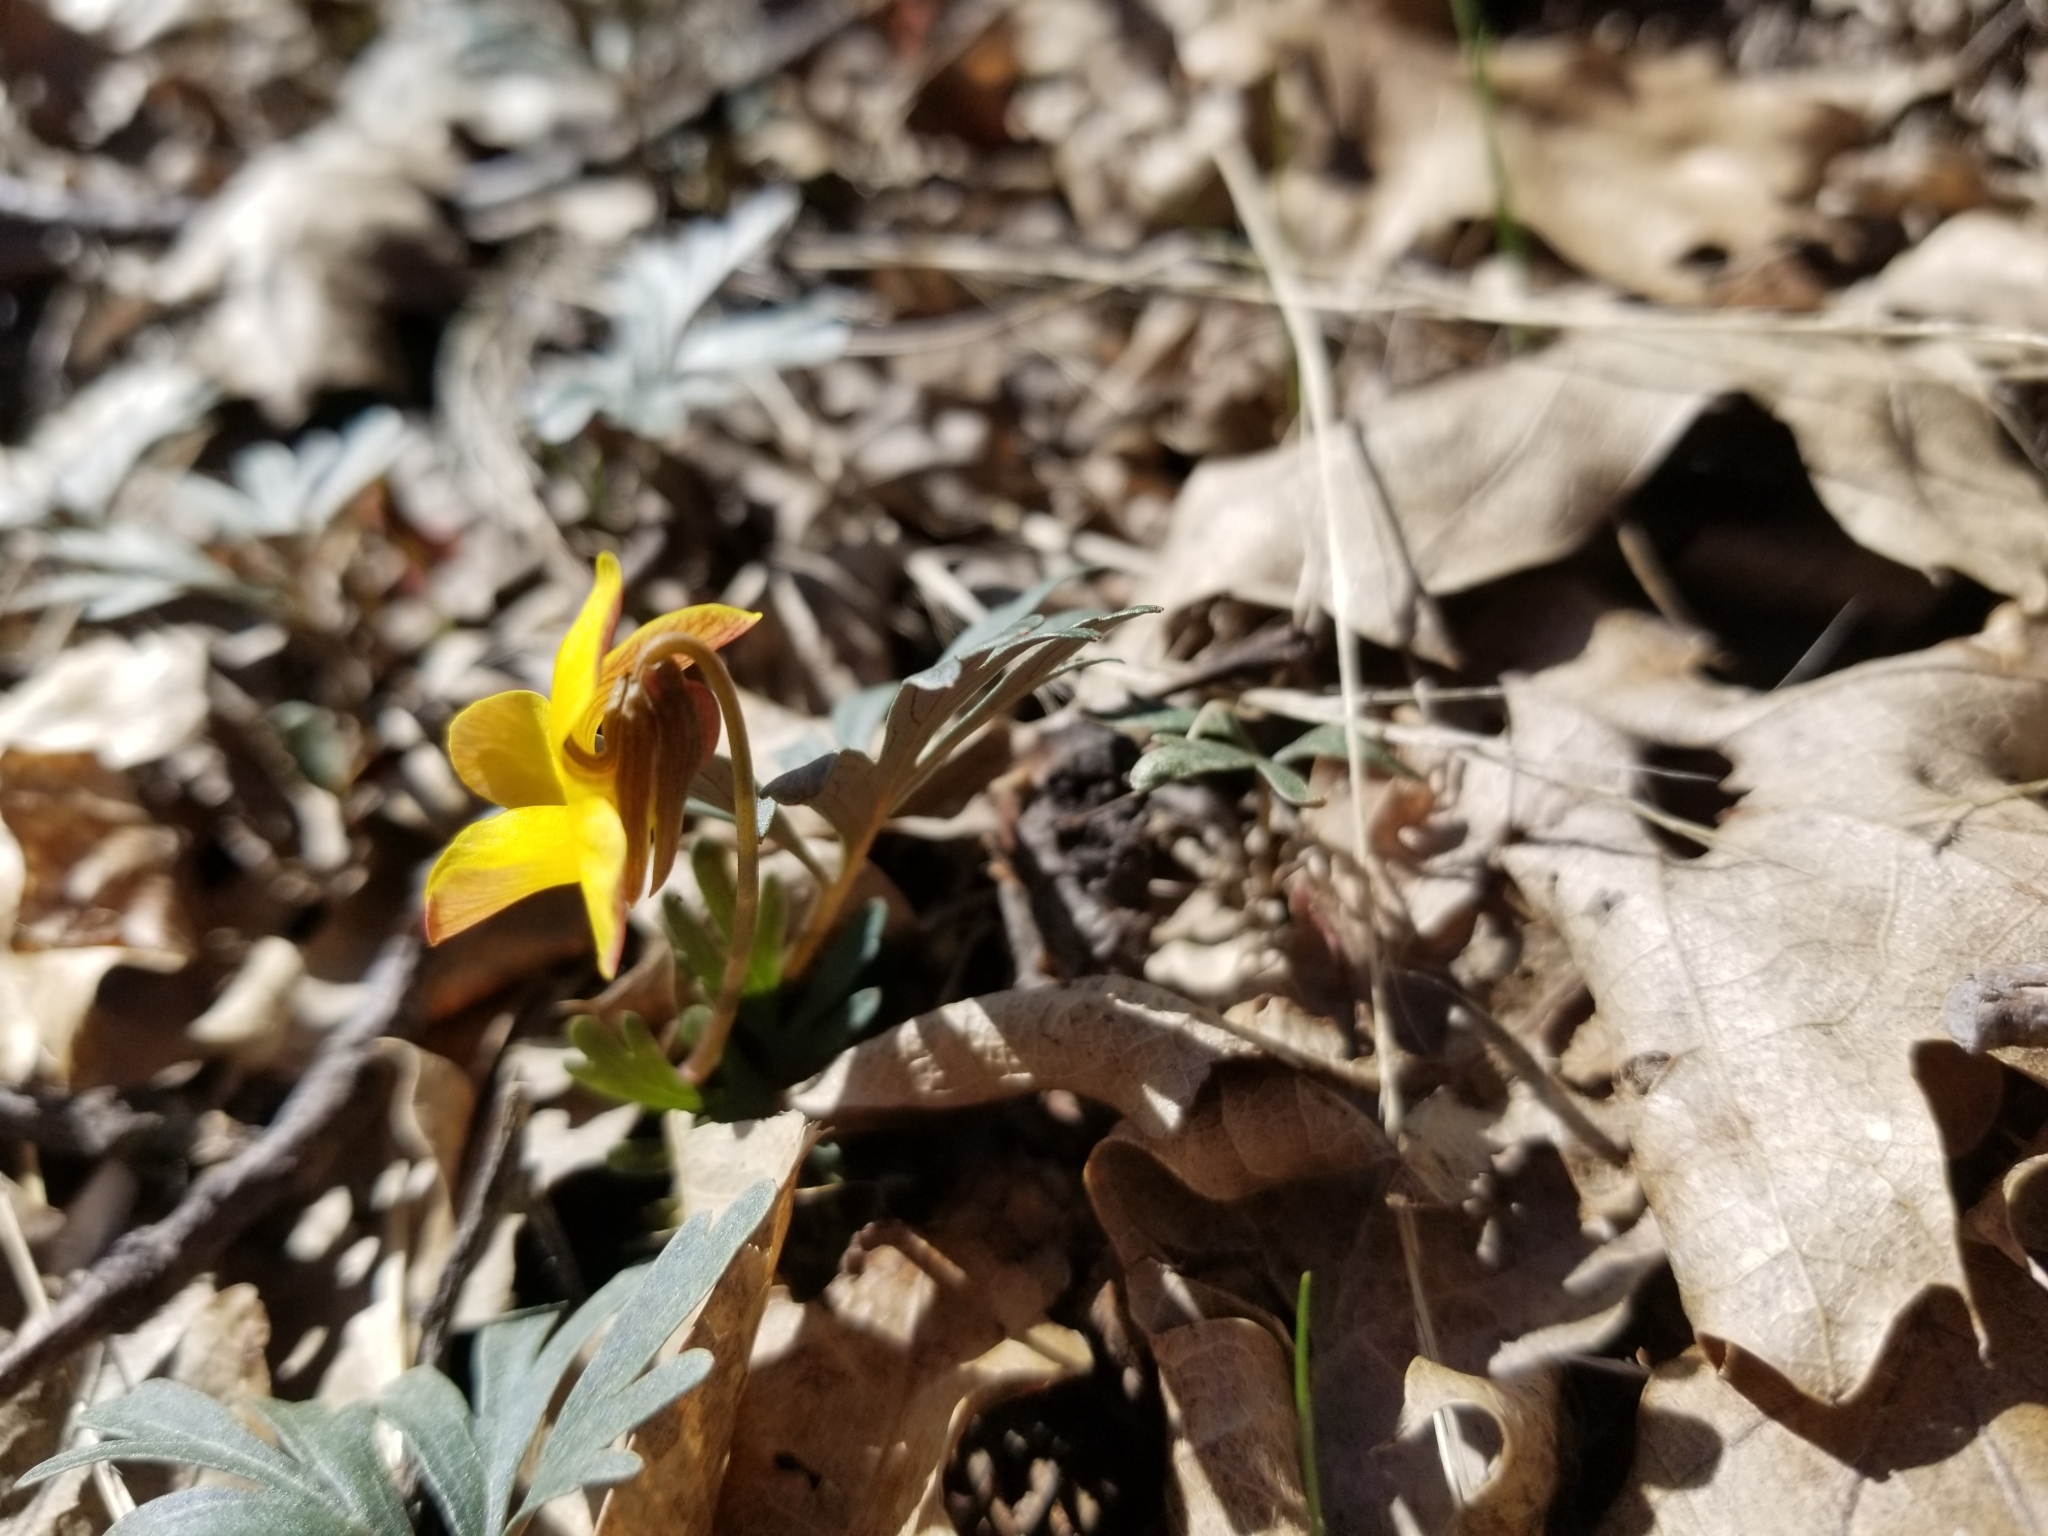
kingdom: Plantae
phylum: Tracheophyta
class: Magnoliopsida
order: Malpighiales
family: Violaceae
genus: Viola
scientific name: Viola sheltonii
